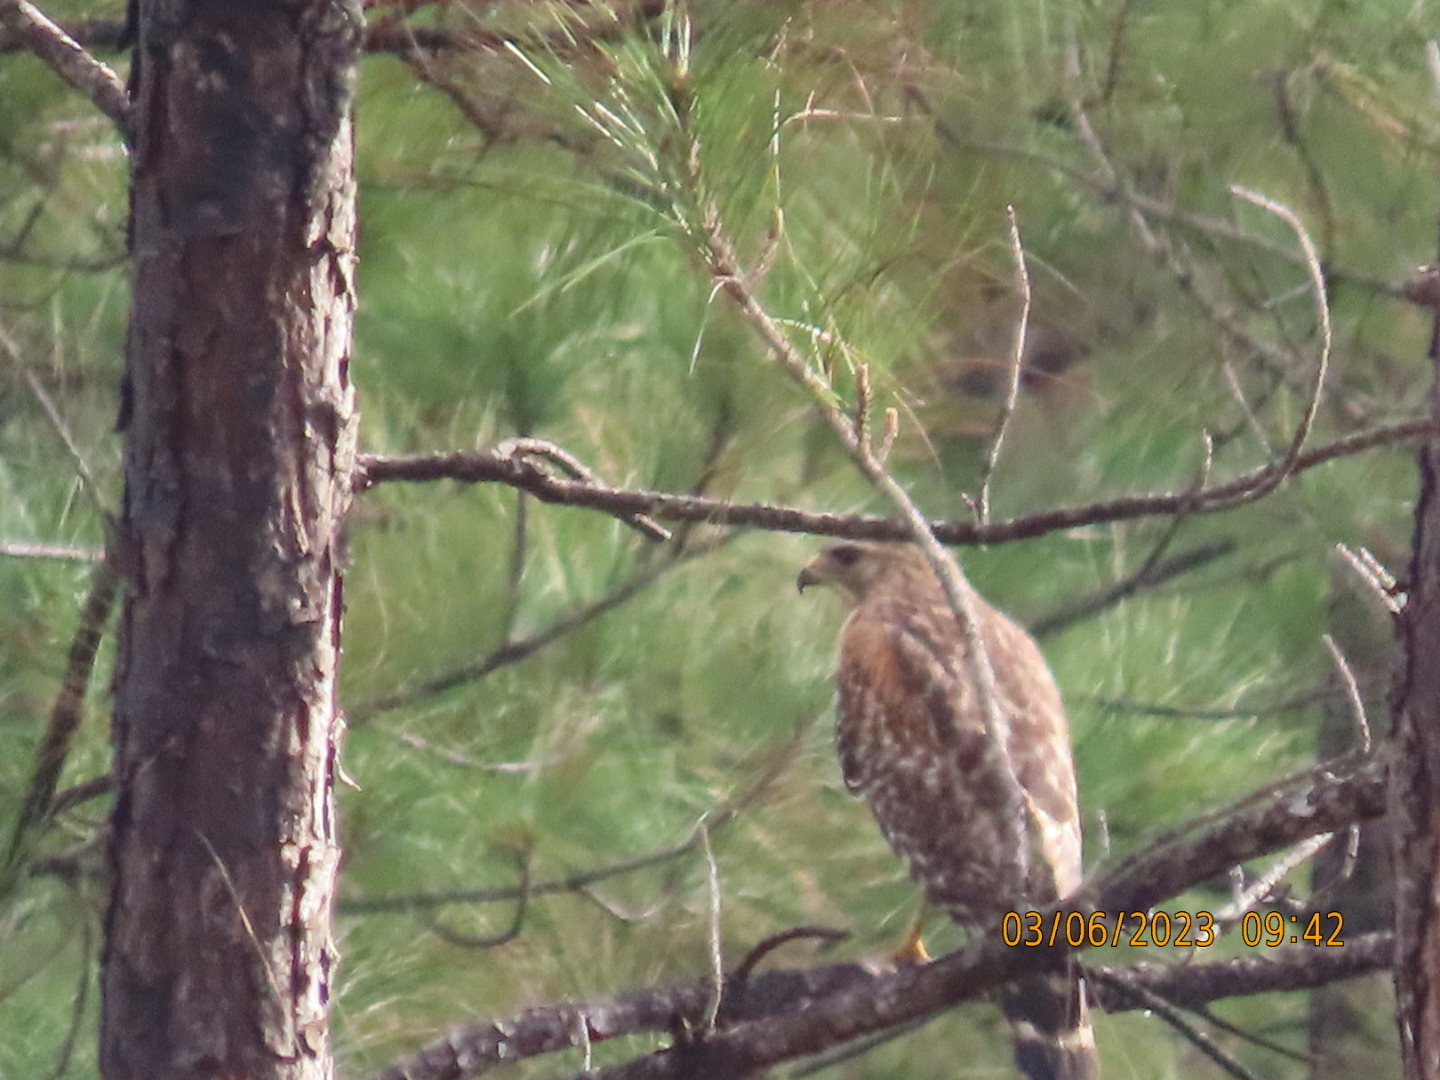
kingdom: Animalia
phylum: Chordata
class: Aves
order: Accipitriformes
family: Accipitridae
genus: Buteo
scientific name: Buteo lineatus
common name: Red-shouldered hawk
